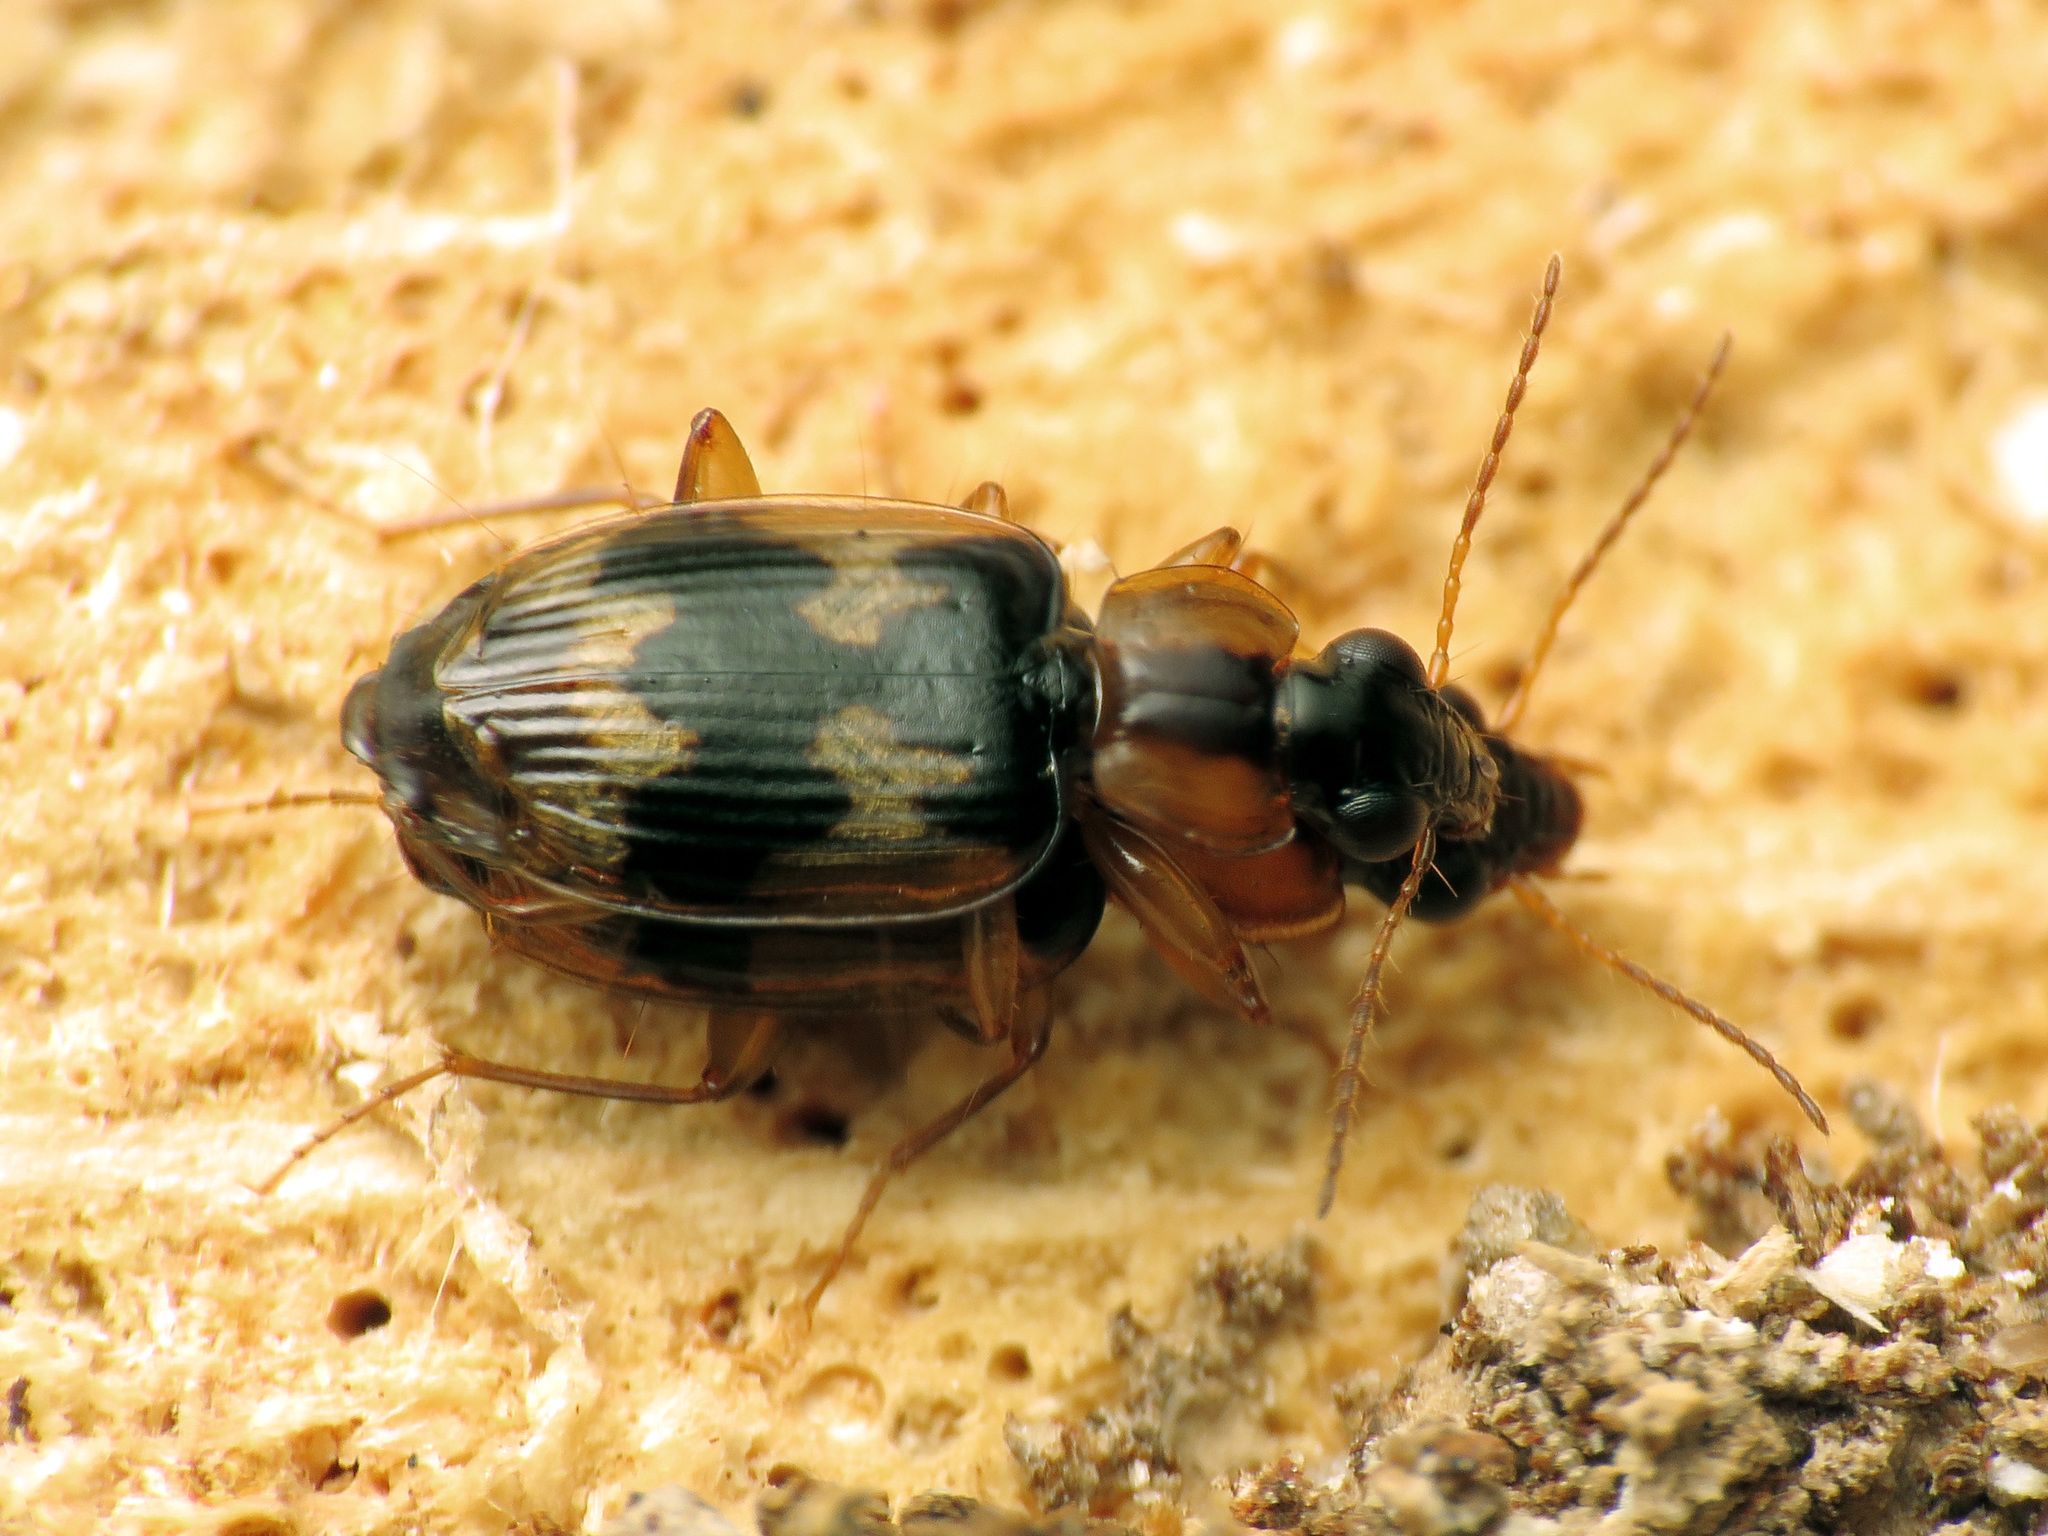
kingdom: Animalia
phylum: Arthropoda
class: Insecta
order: Coleoptera
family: Carabidae
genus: Phloeoxena
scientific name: Phloeoxena signata
